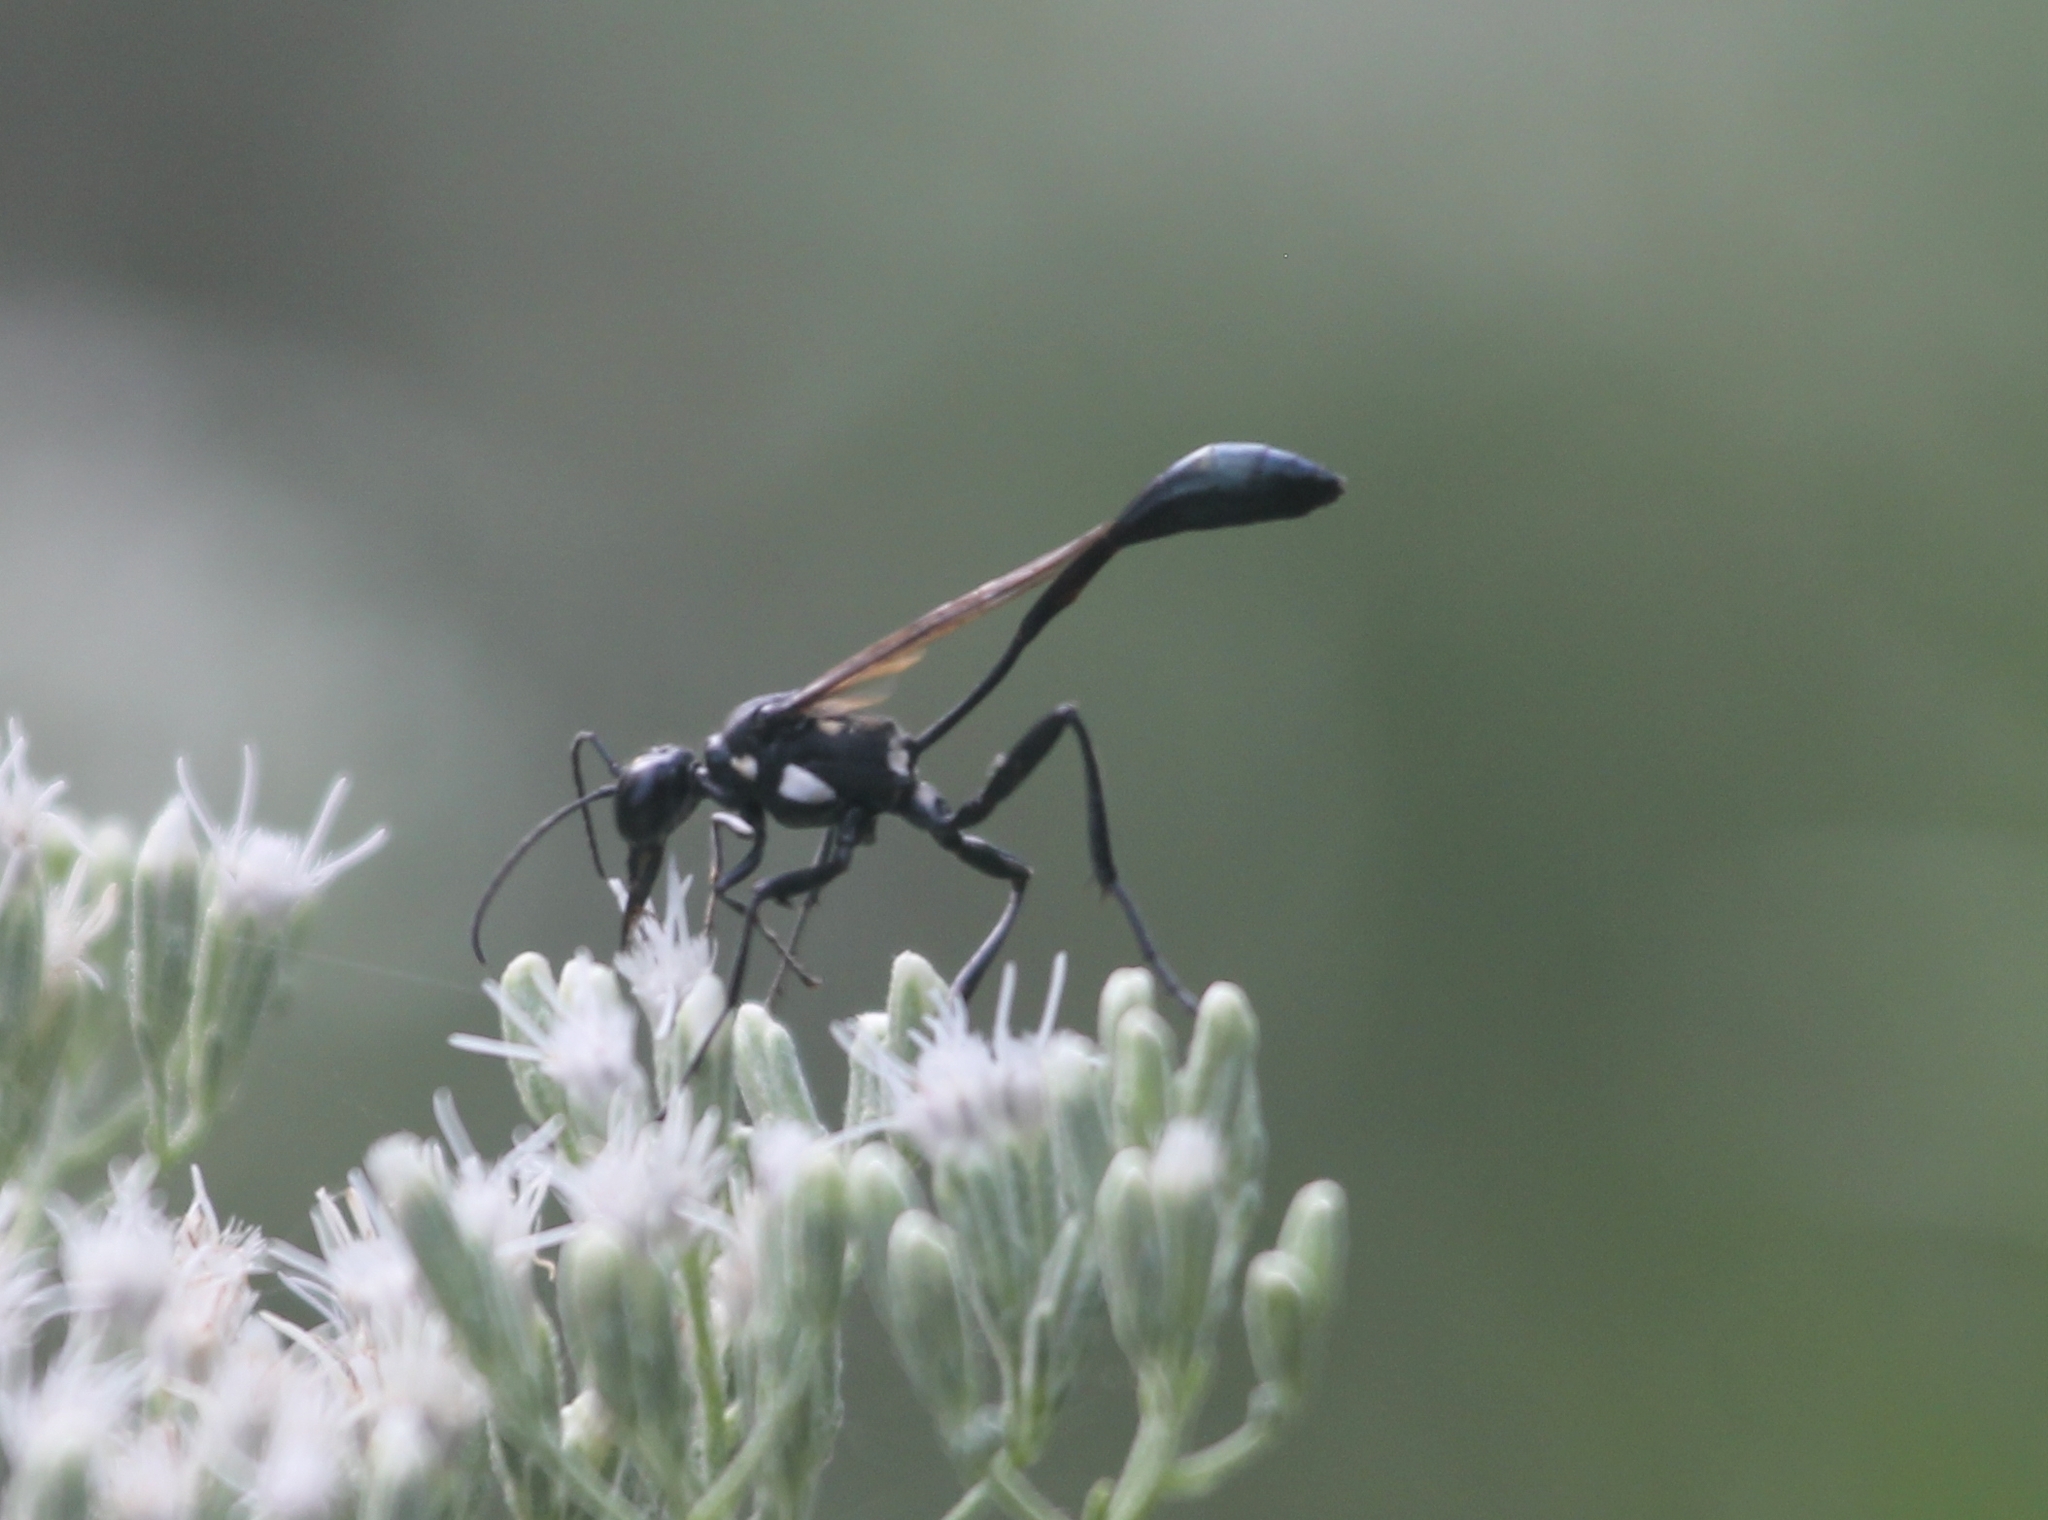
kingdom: Animalia
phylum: Arthropoda
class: Insecta
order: Hymenoptera
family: Sphecidae
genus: Eremnophila
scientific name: Eremnophila aureonotata
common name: Gold-marked thread-waisted wasp
